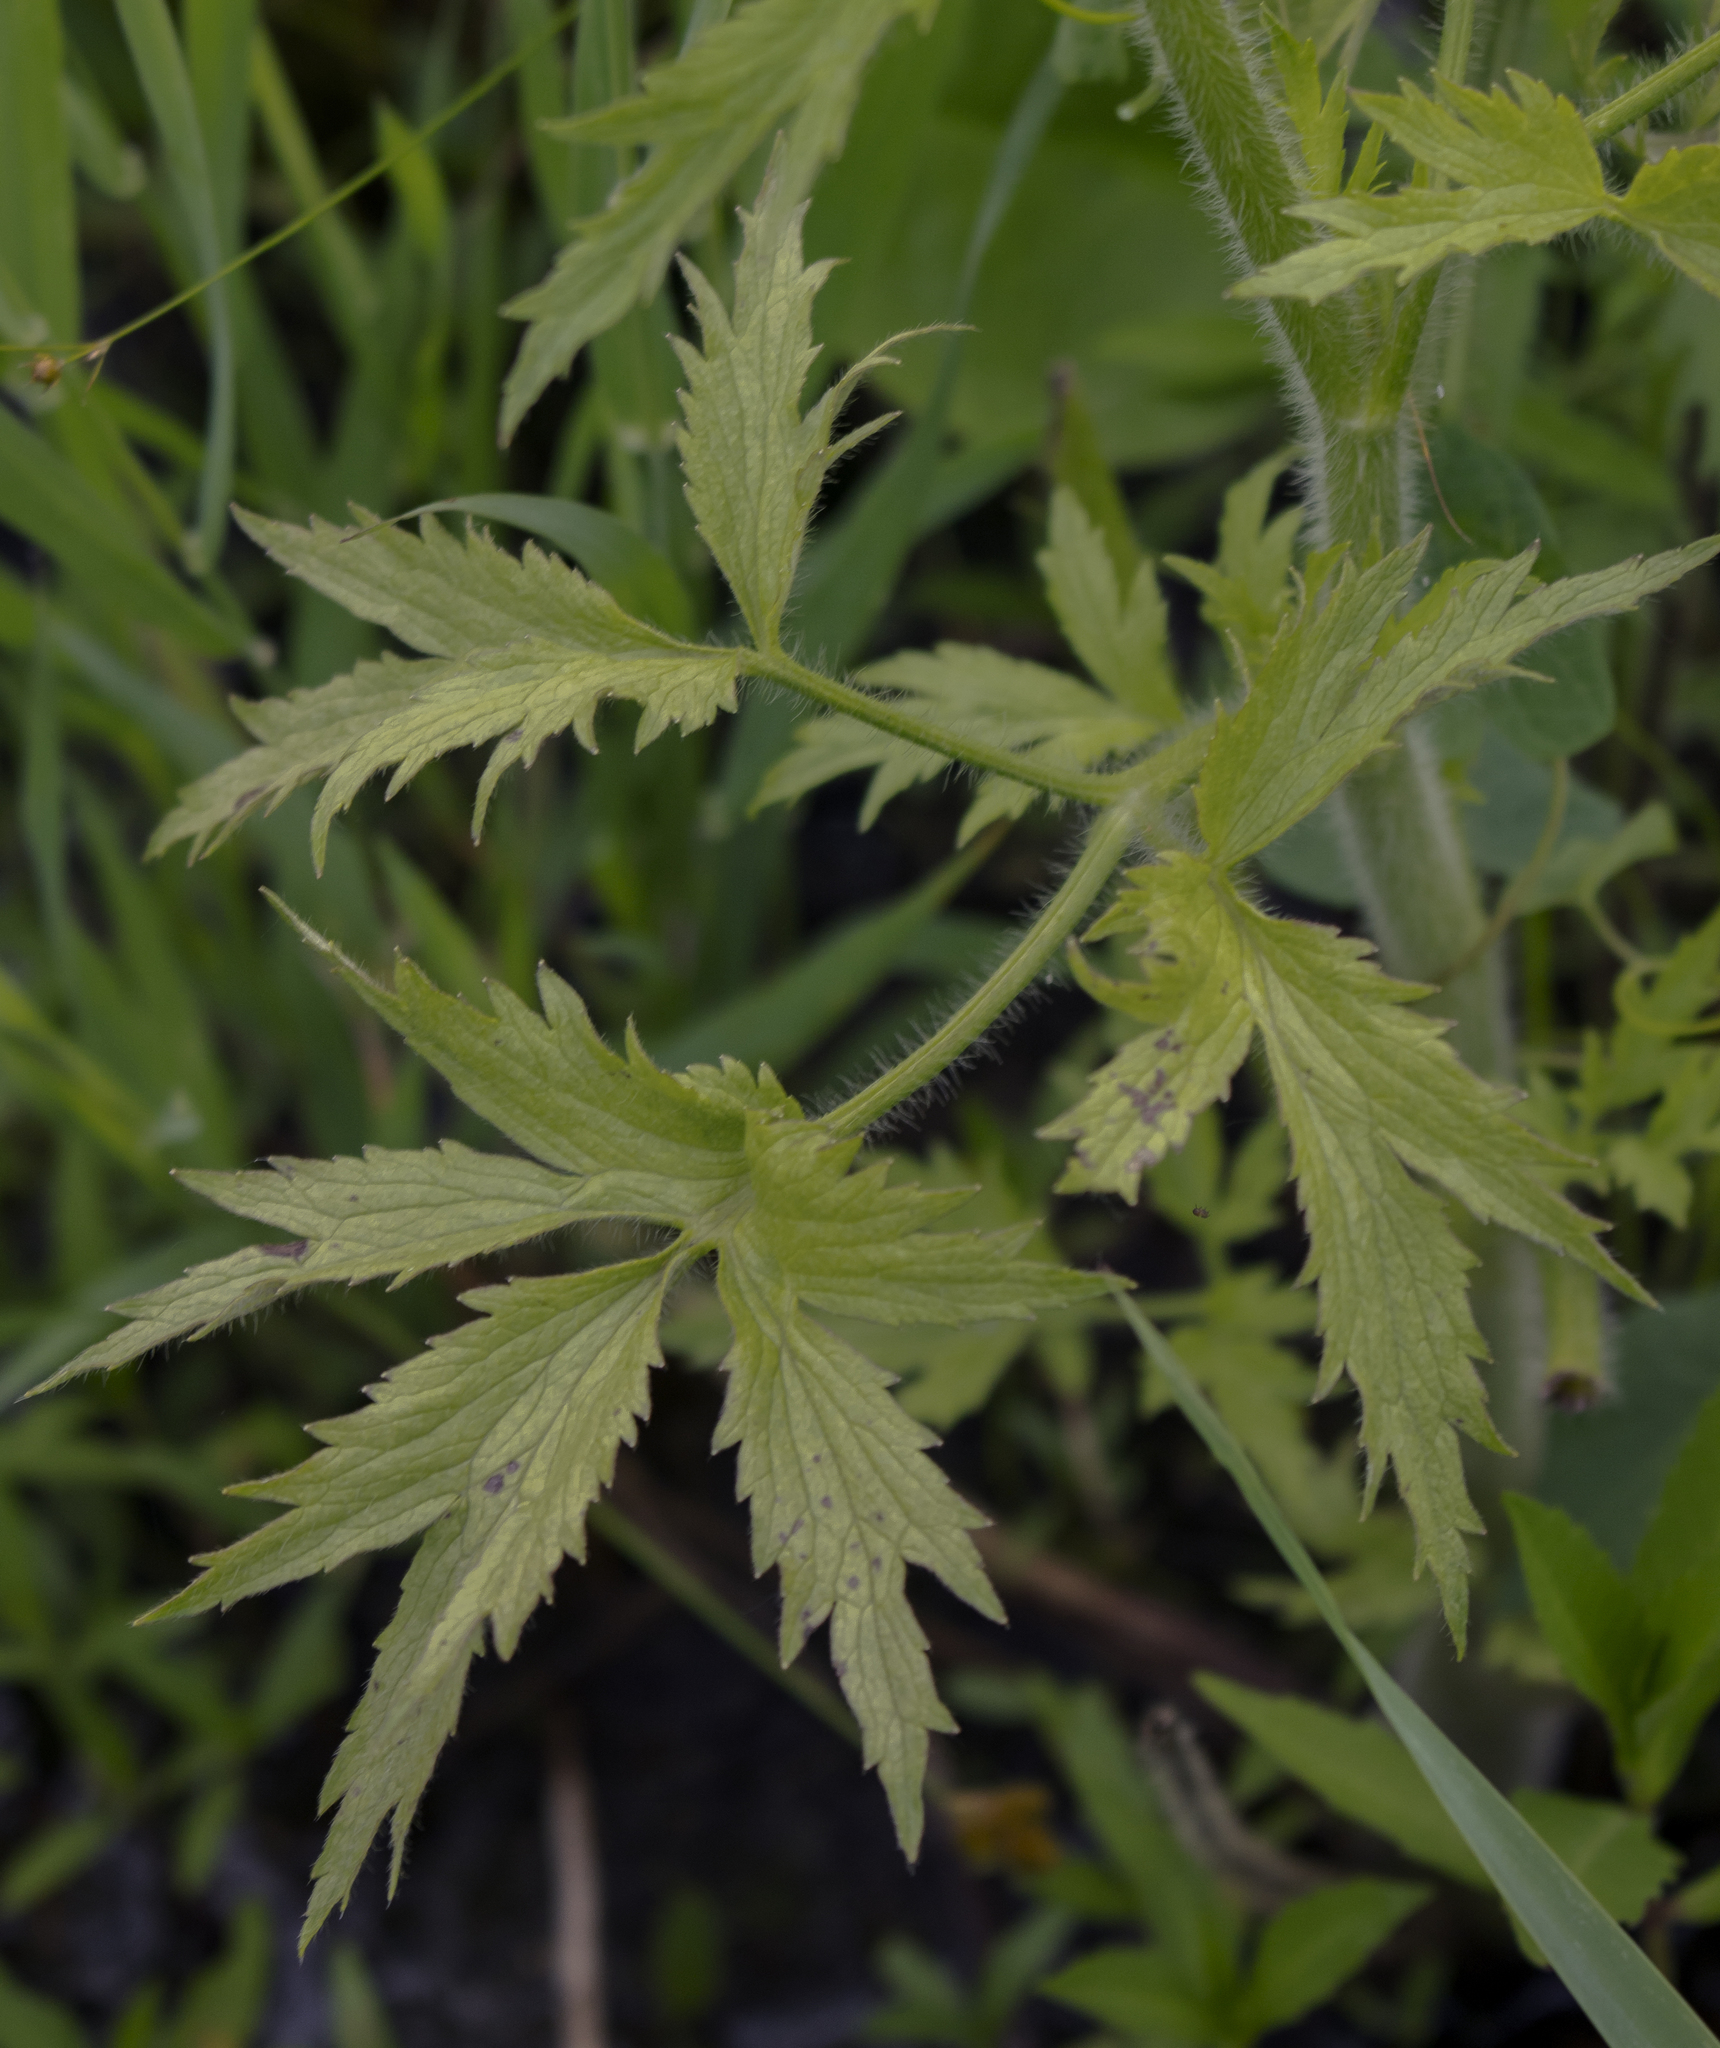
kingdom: Plantae
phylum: Tracheophyta
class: Magnoliopsida
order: Ranunculales
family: Ranunculaceae
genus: Ranunculus
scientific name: Ranunculus pensylvanicus
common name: Bristly buttercup
